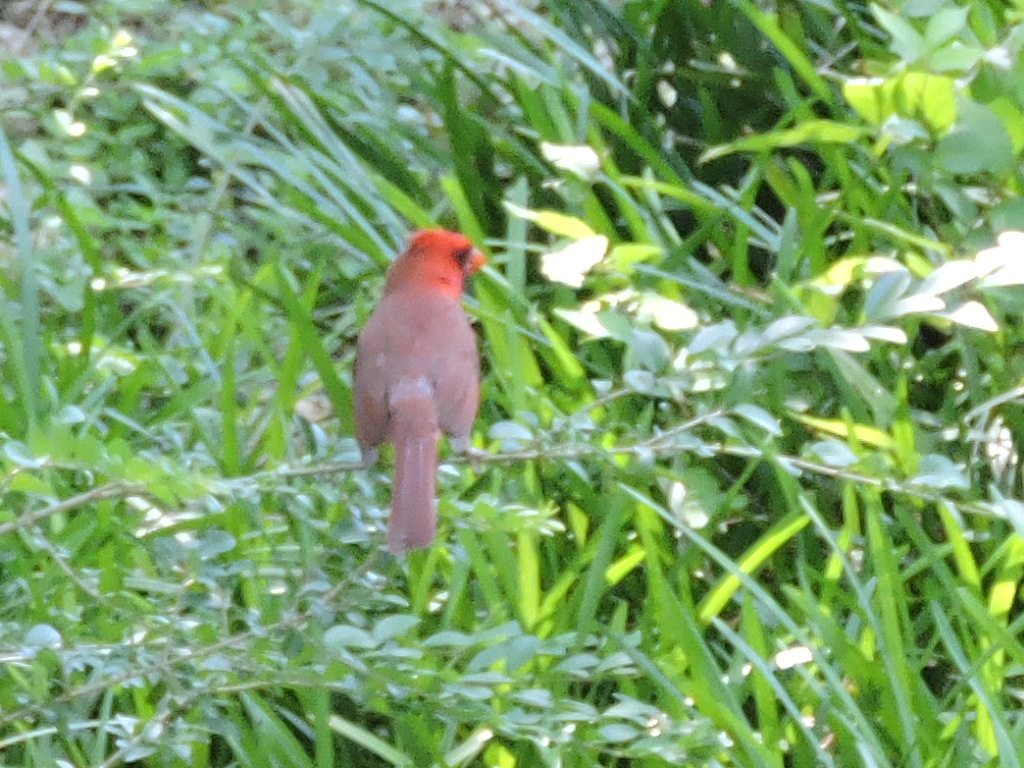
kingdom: Animalia
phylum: Chordata
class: Aves
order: Passeriformes
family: Cardinalidae
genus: Cardinalis
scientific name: Cardinalis cardinalis
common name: Northern cardinal
